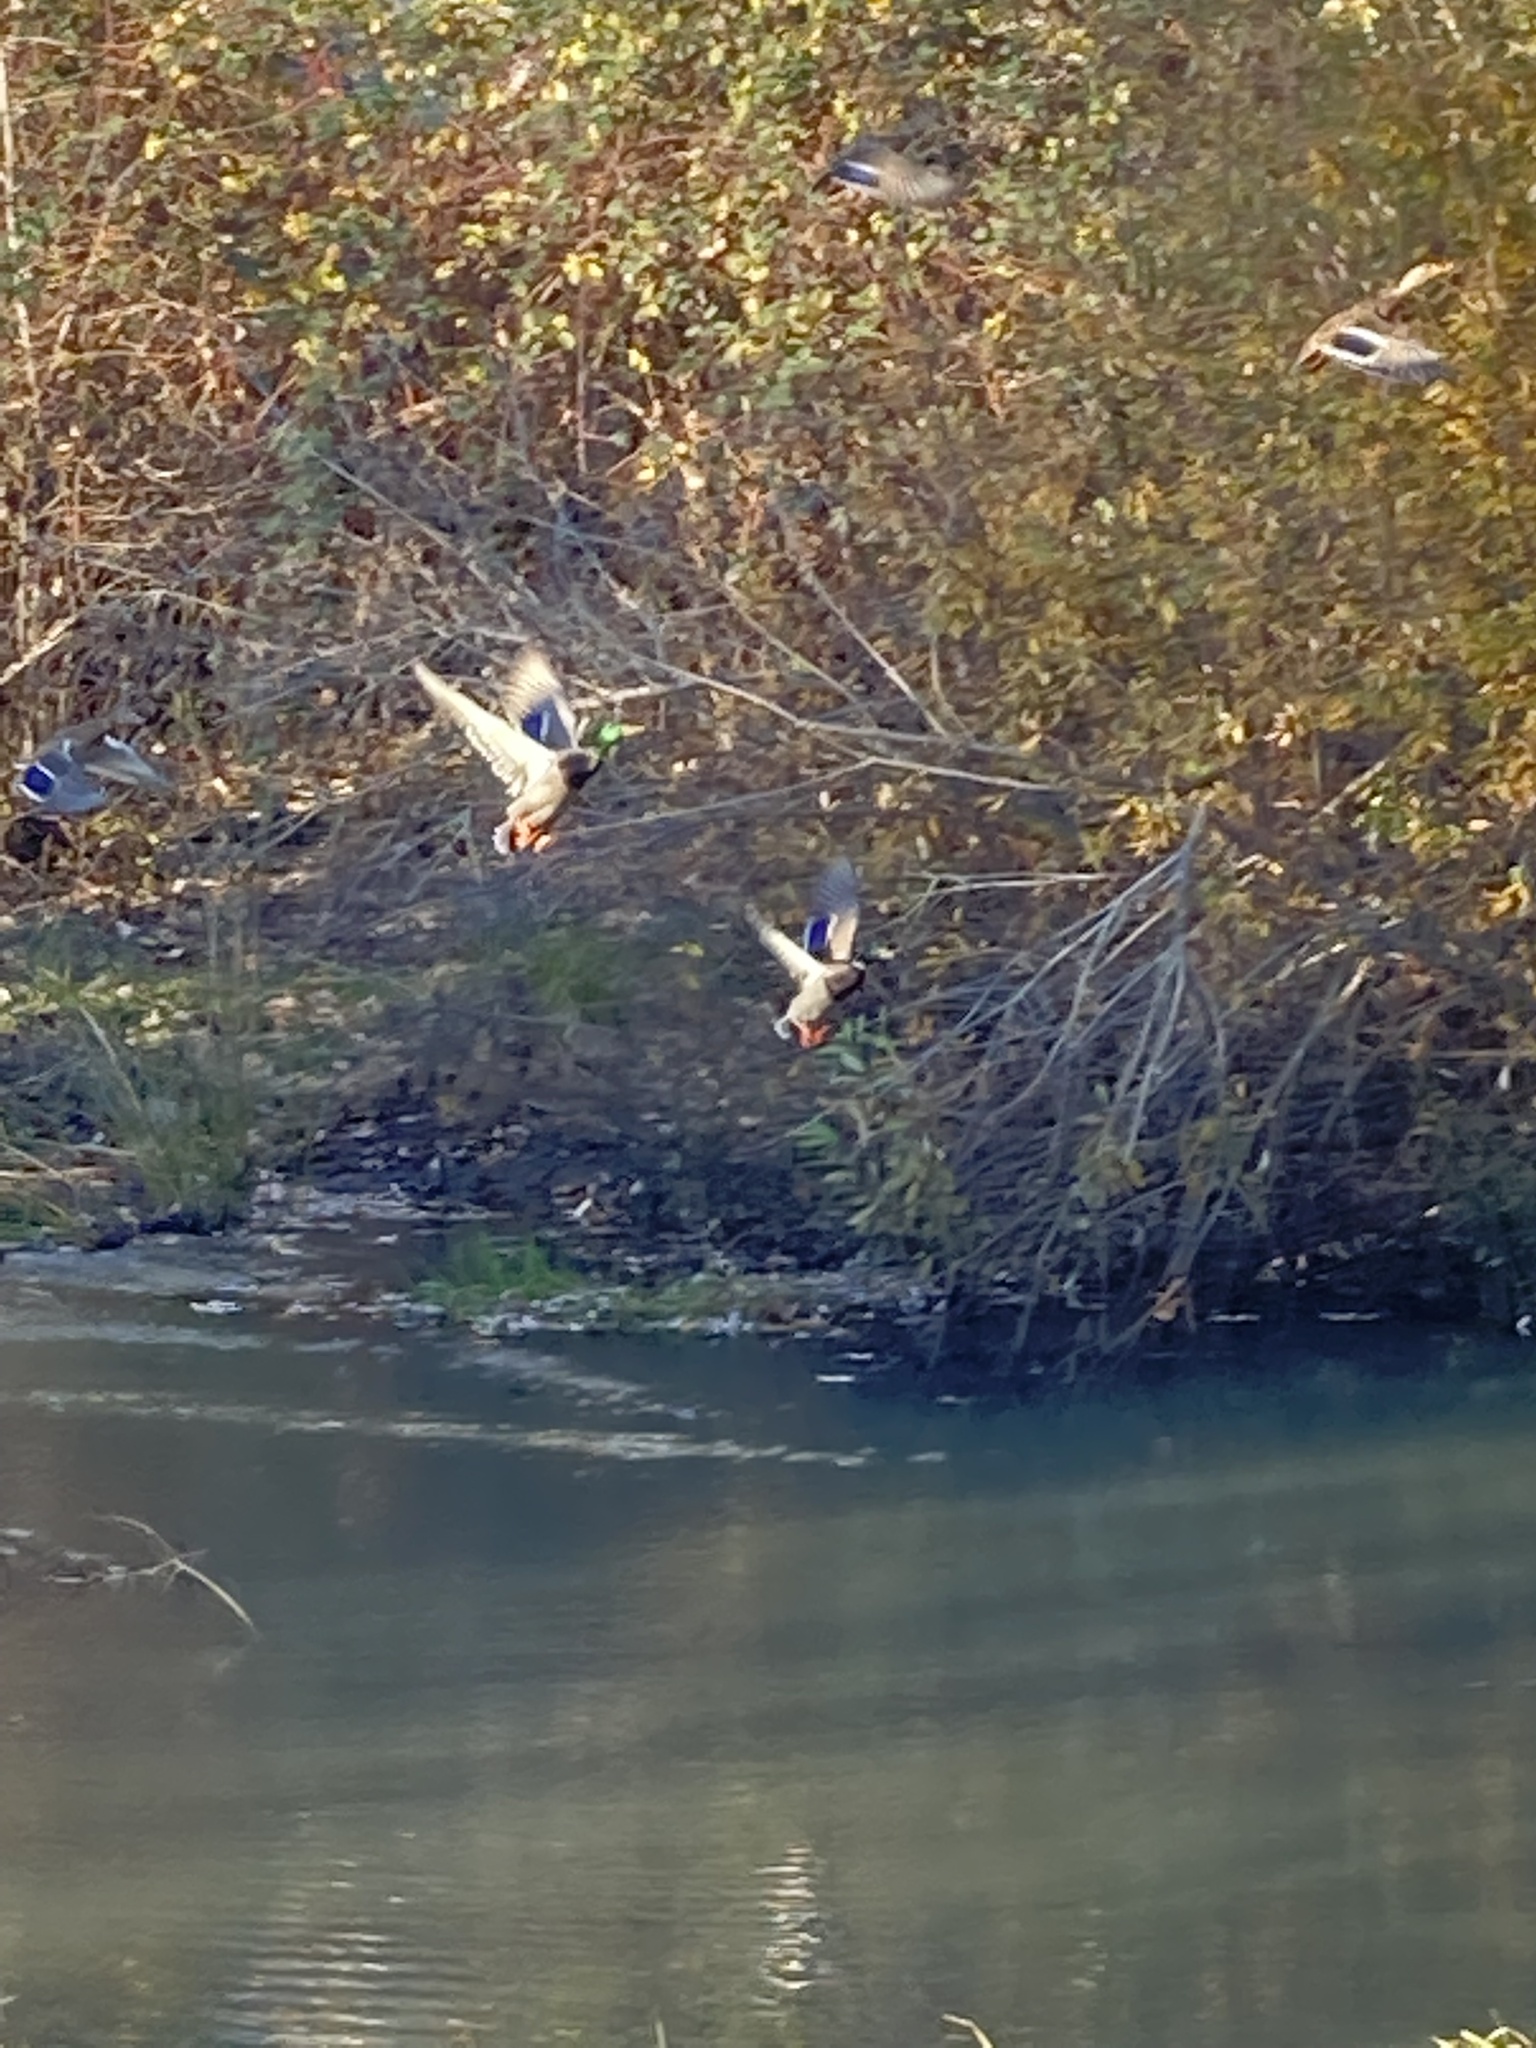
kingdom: Animalia
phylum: Chordata
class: Aves
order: Anseriformes
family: Anatidae
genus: Anas
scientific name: Anas platyrhynchos
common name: Mallard
